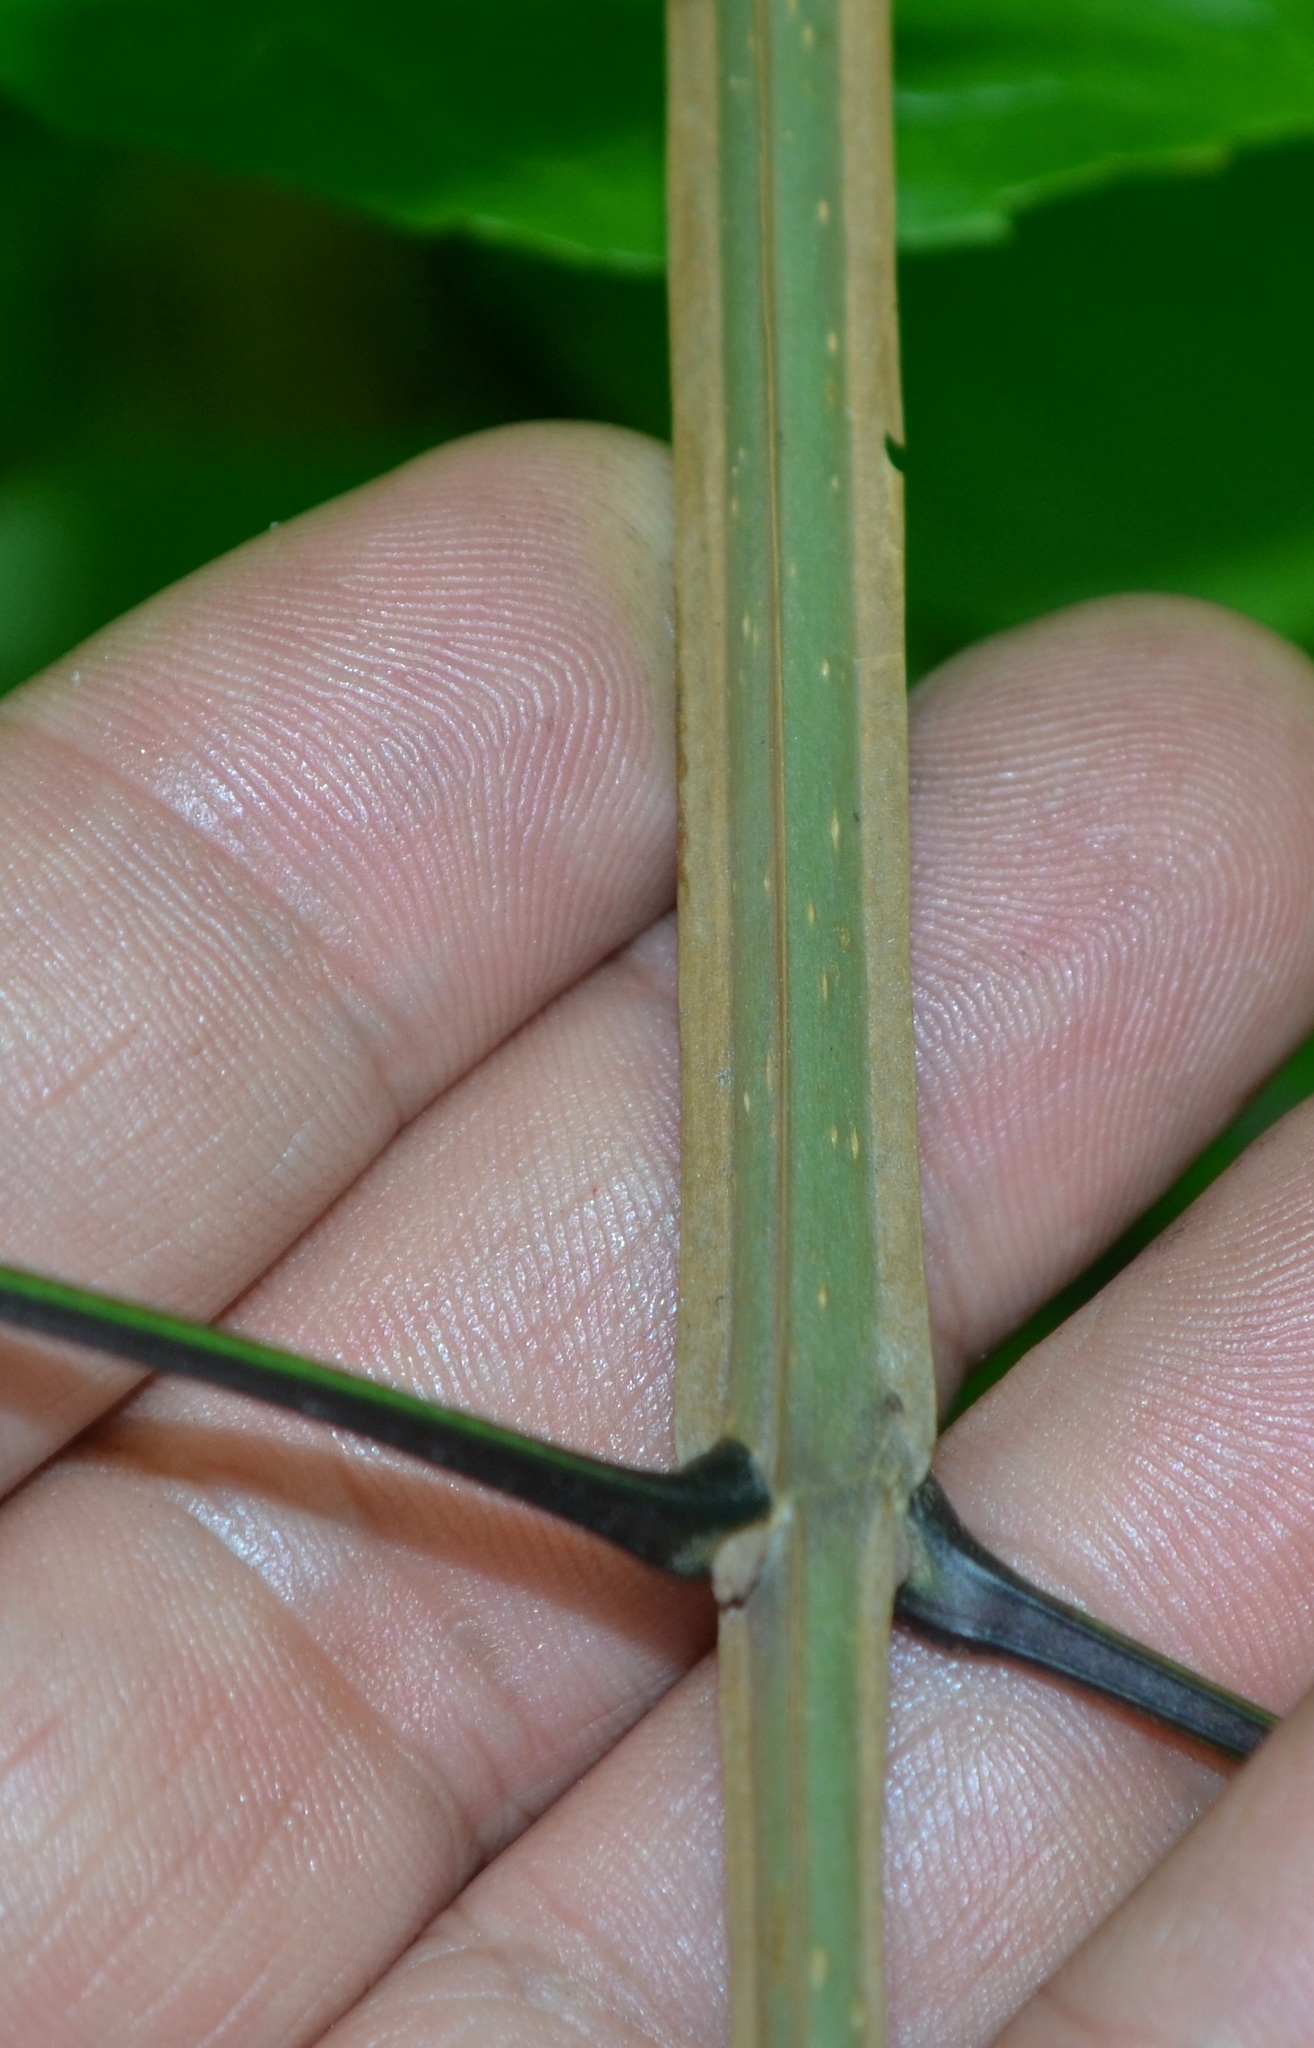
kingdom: Plantae
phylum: Tracheophyta
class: Magnoliopsida
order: Lamiales
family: Oleaceae
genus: Fraxinus
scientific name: Fraxinus quadrangulata
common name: Blue ash
